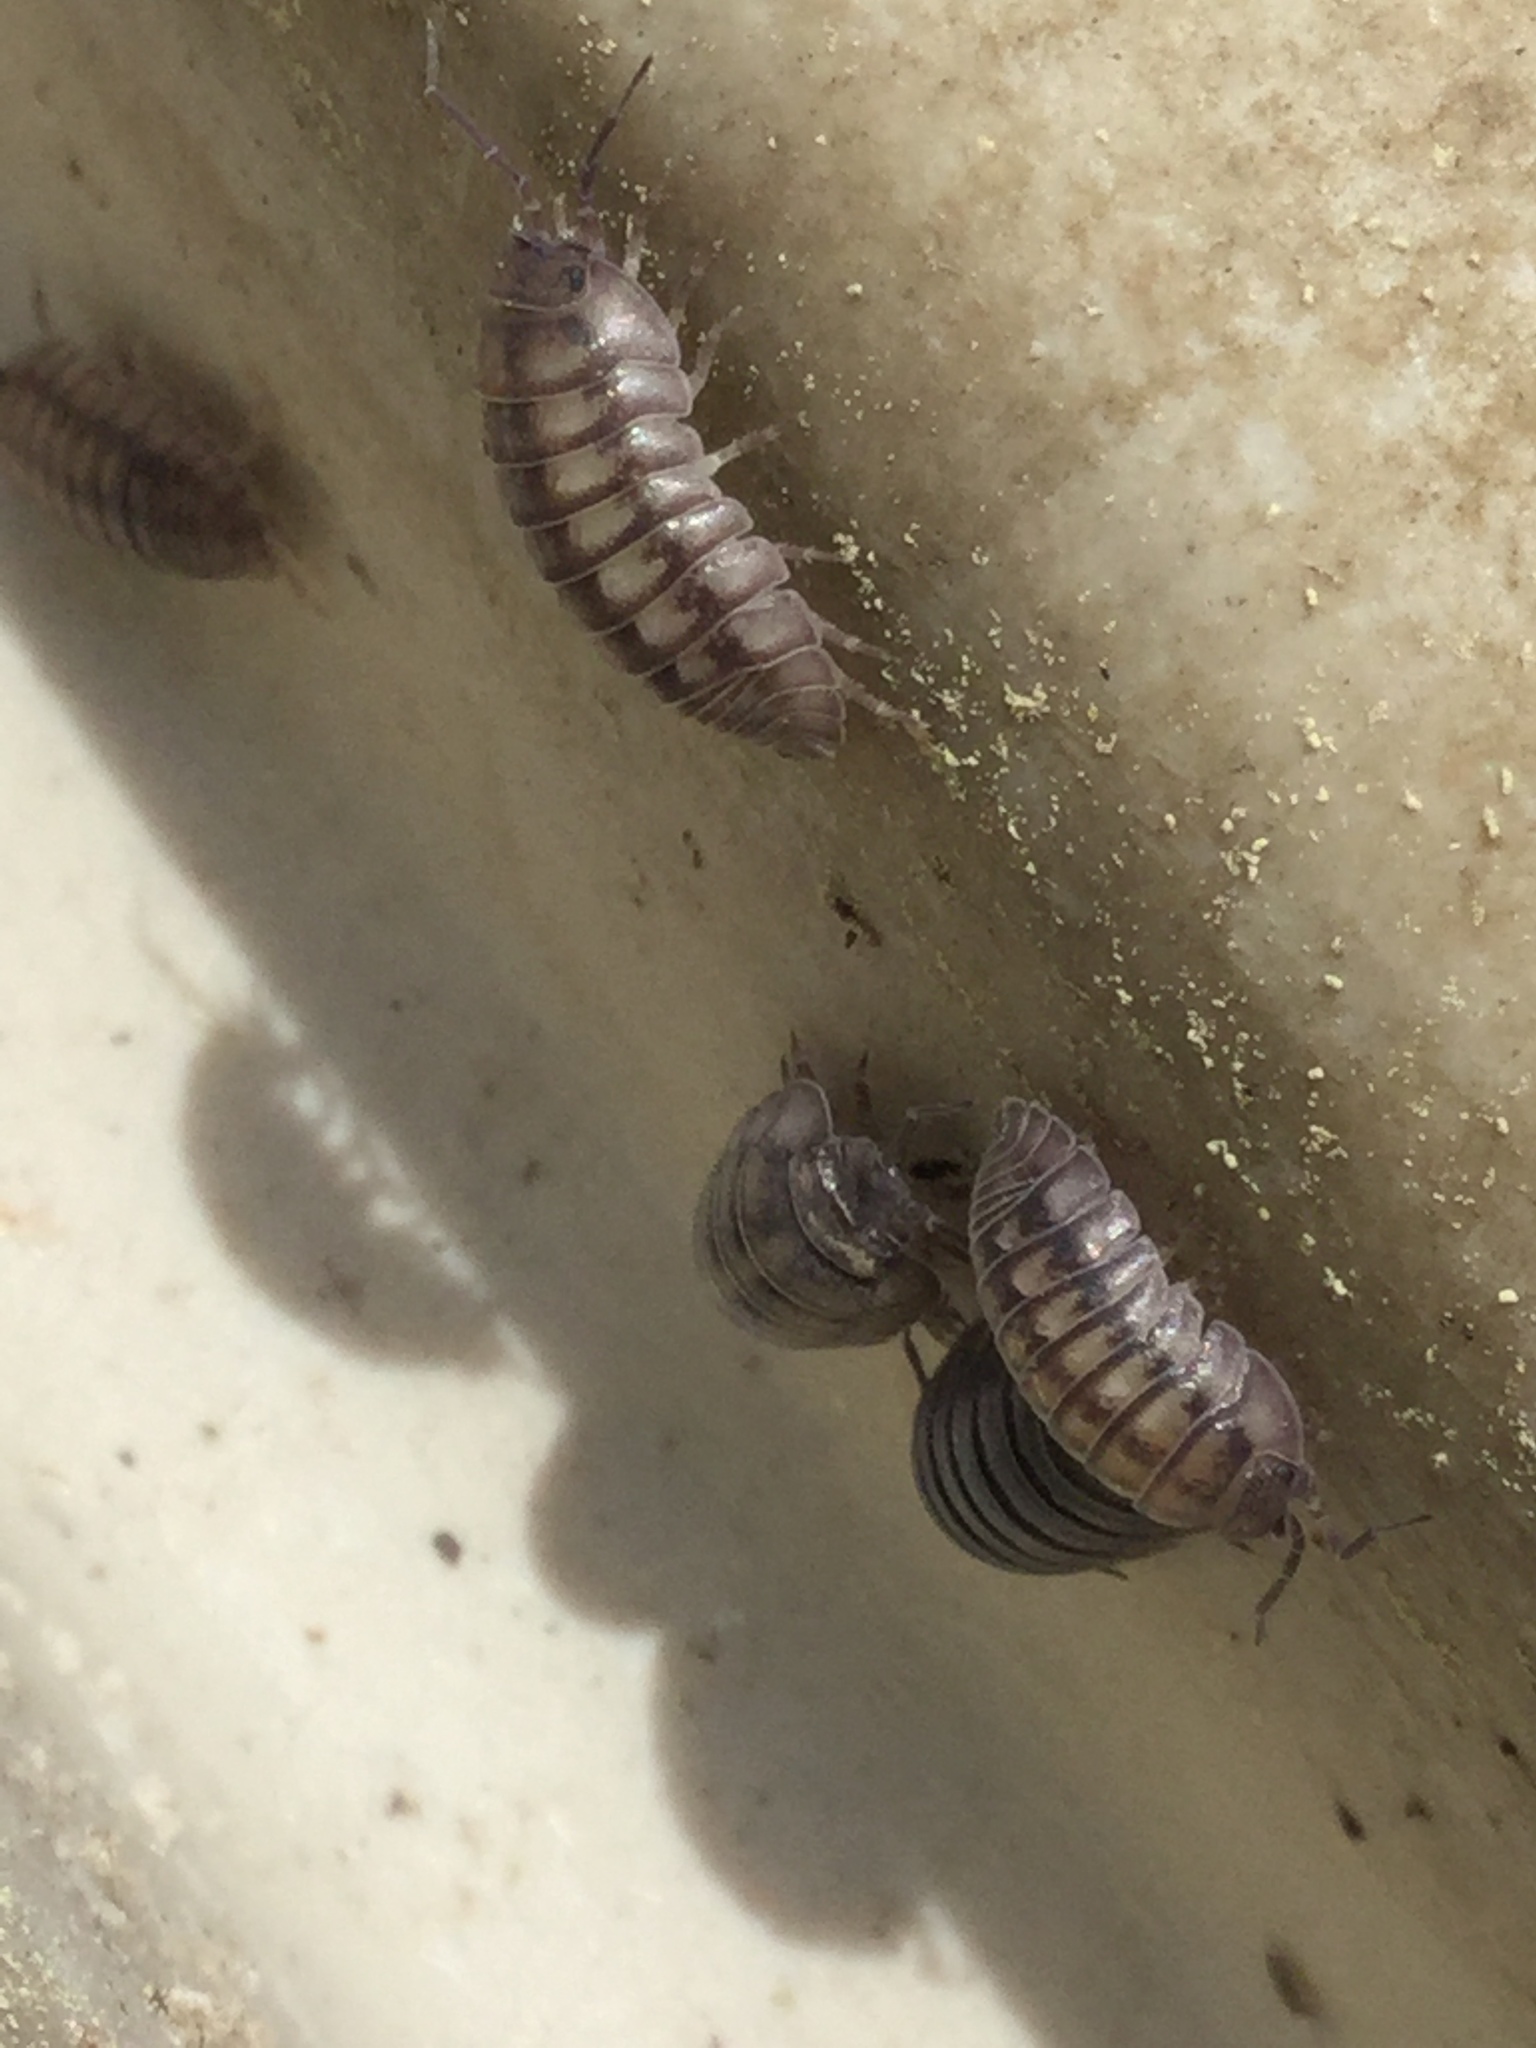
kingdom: Animalia
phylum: Arthropoda
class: Malacostraca
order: Isopoda
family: Armadillidiidae
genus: Armadillidium
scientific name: Armadillidium nasatum
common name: Isopod
